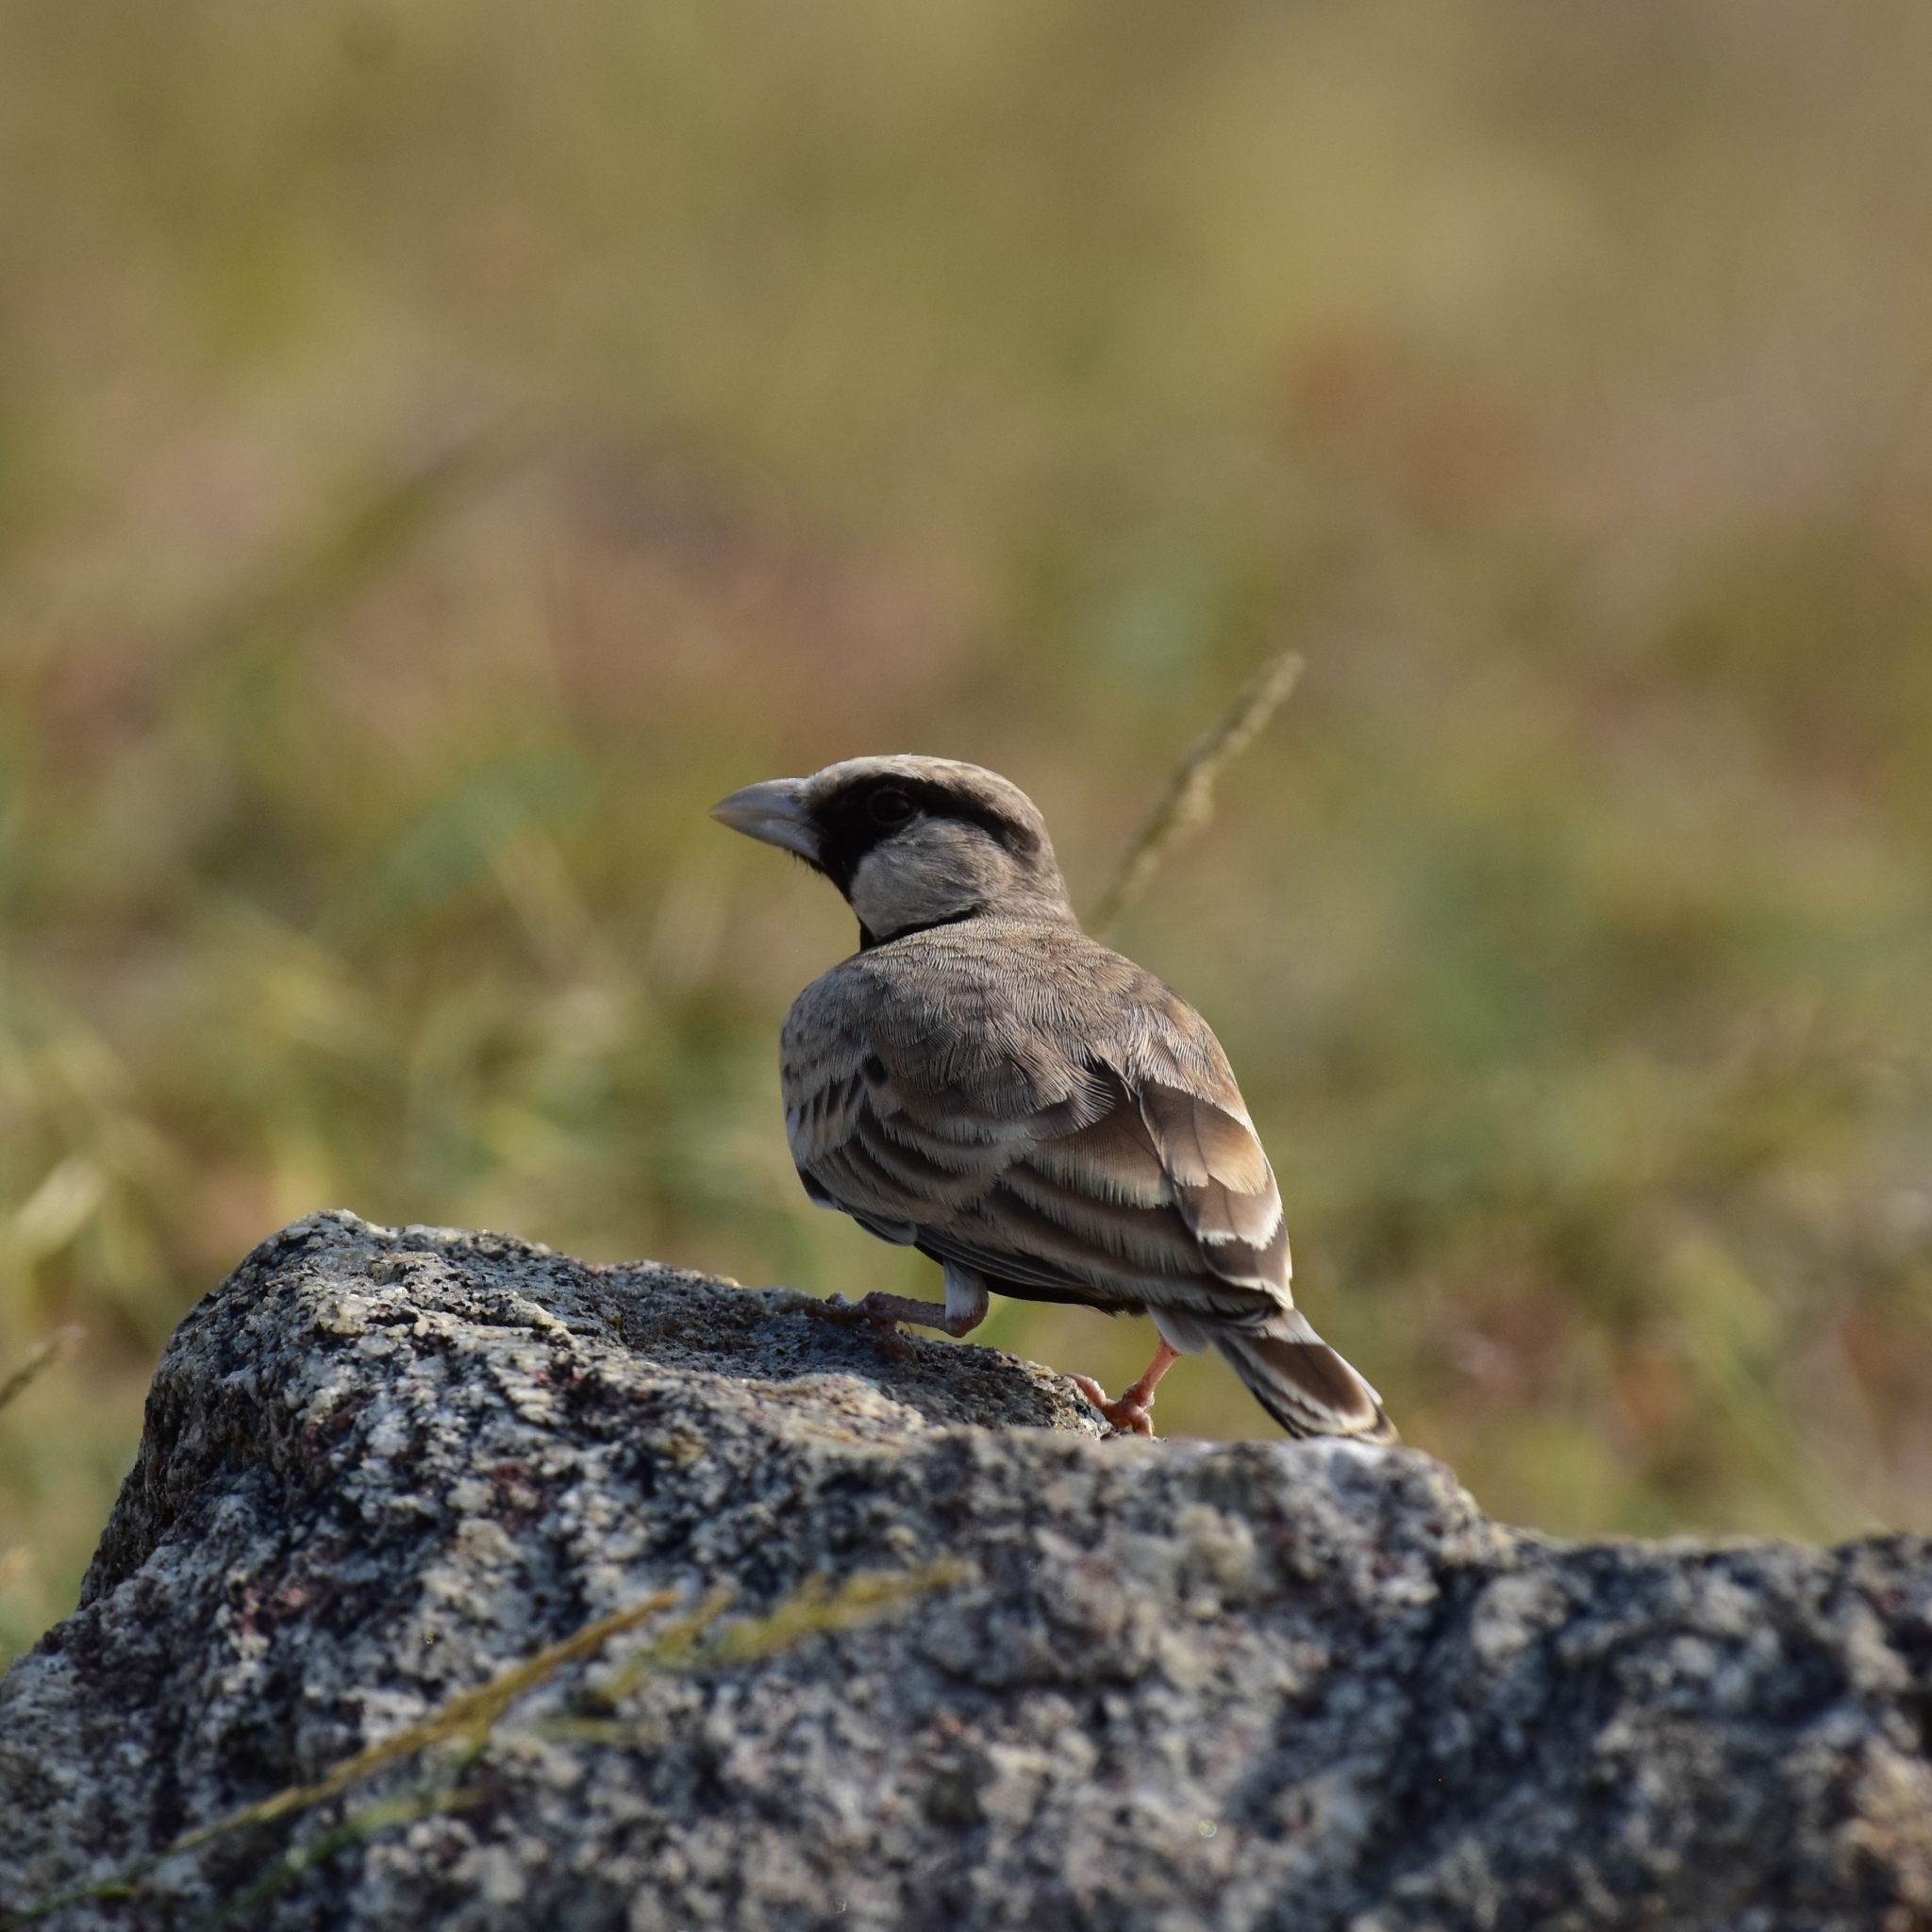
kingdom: Animalia
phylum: Chordata
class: Aves
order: Passeriformes
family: Alaudidae
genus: Eremopterix
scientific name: Eremopterix griseus
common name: Ashy-crowned sparrow-lark
